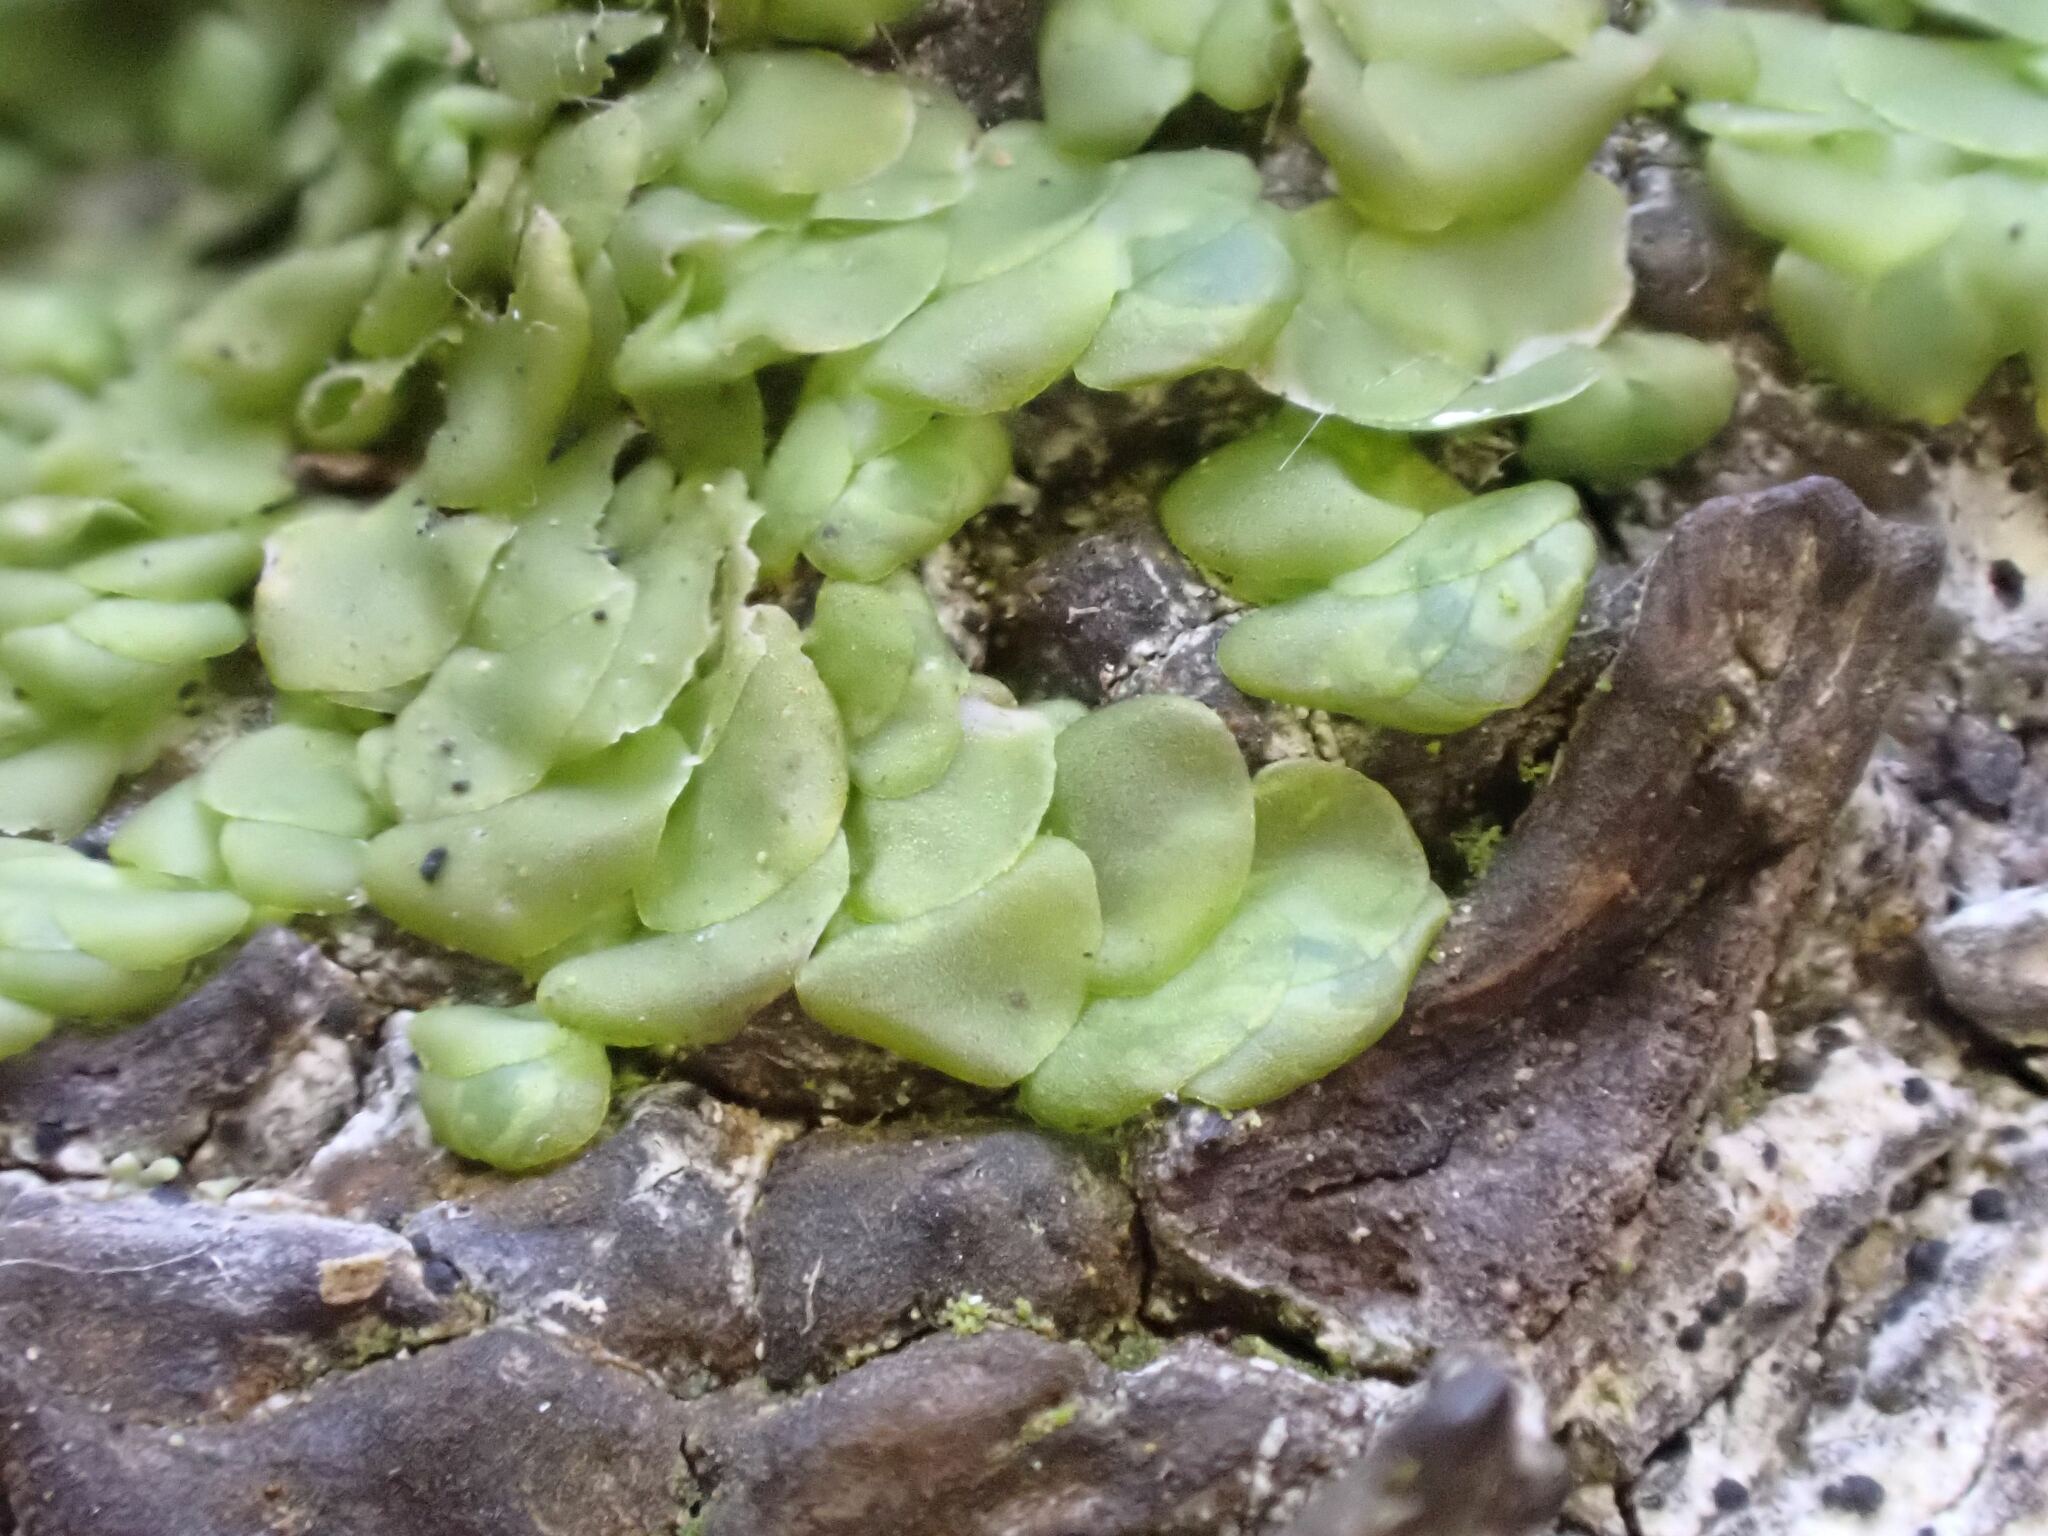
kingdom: Plantae
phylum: Marchantiophyta
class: Jungermanniopsida
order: Porellales
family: Radulaceae
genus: Radula
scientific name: Radula complanata
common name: Flat-leaved scalewort
